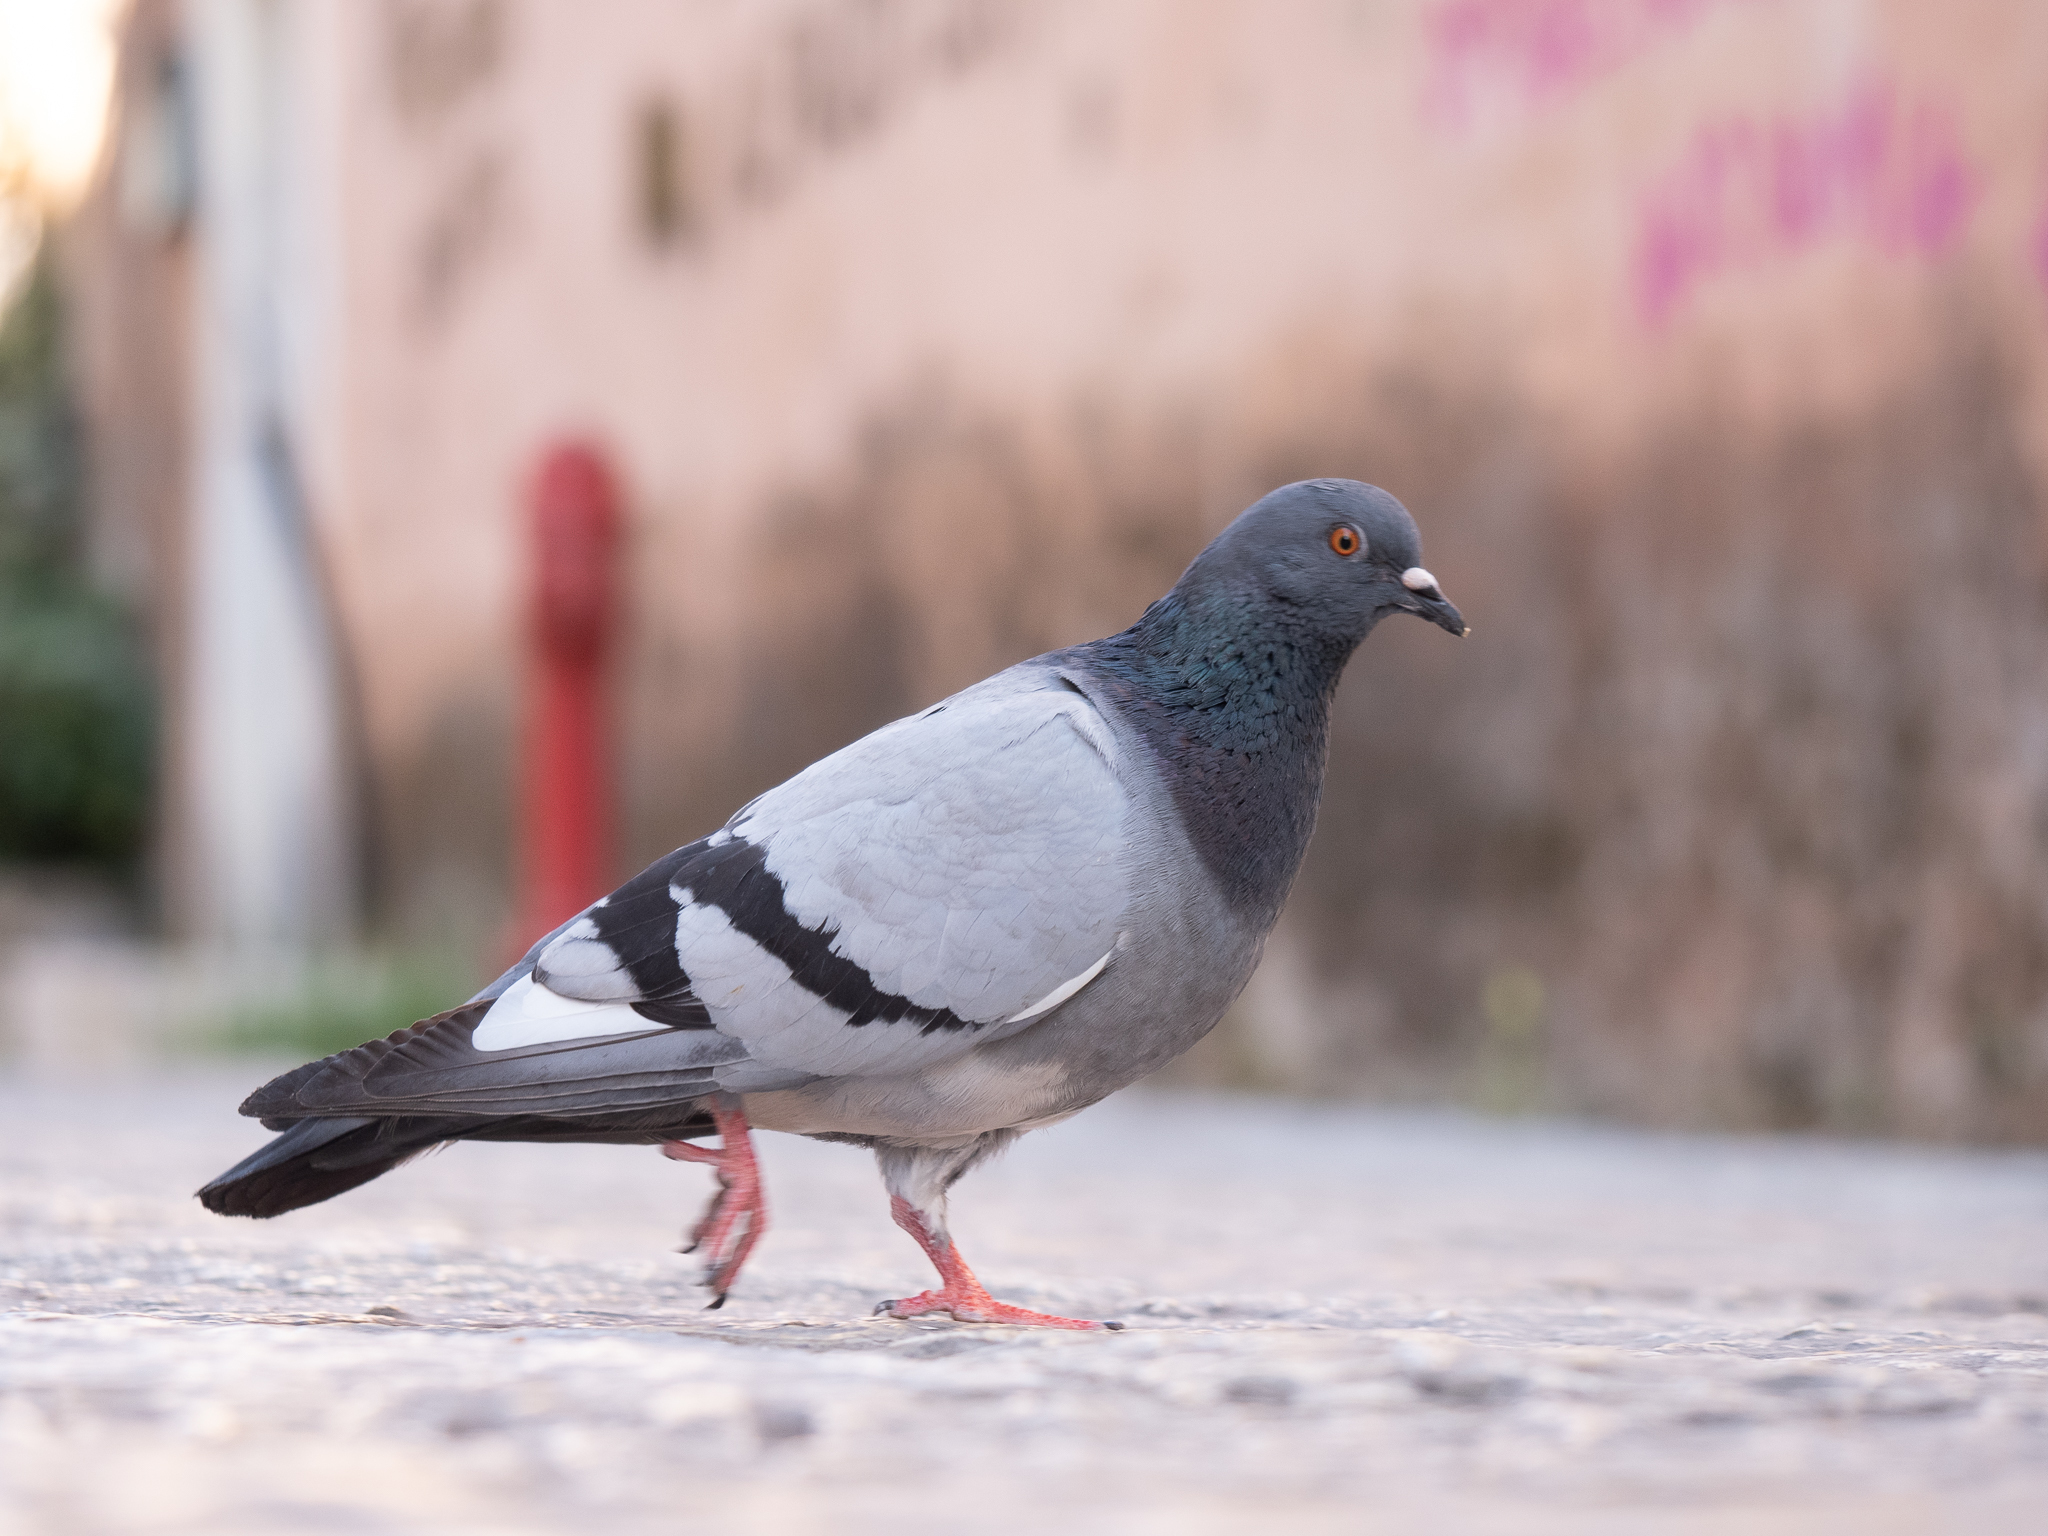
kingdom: Animalia
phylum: Chordata
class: Aves
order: Columbiformes
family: Columbidae
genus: Columba
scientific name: Columba livia
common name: Rock pigeon
